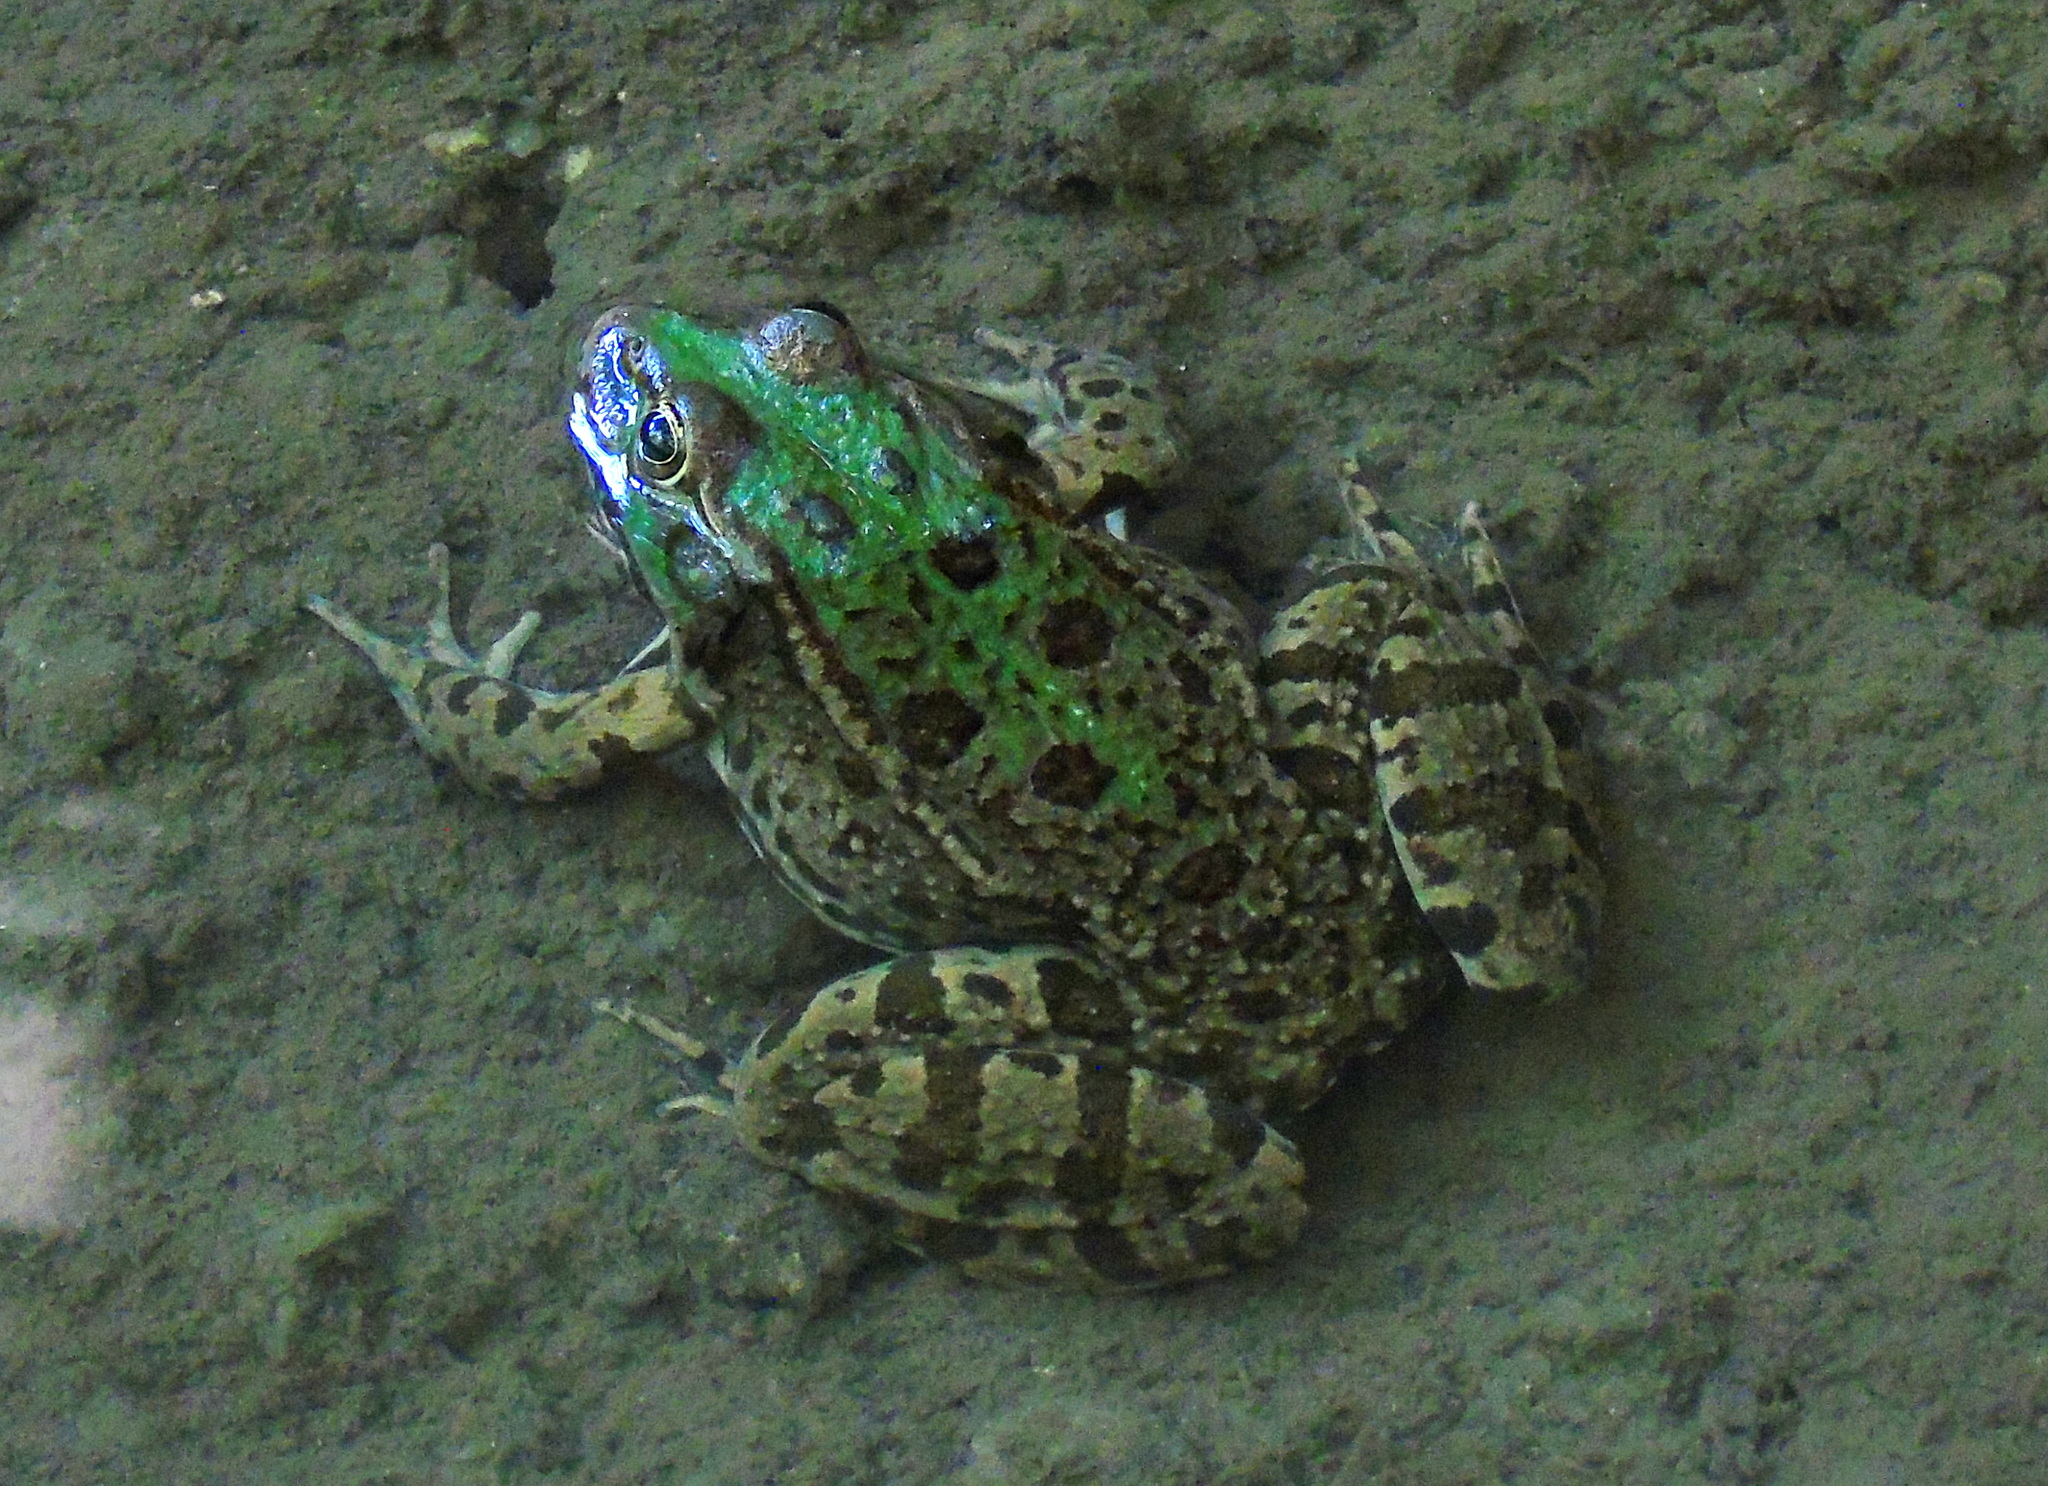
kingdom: Animalia
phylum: Chordata
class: Amphibia
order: Anura
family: Ranidae
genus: Pelophylax
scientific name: Pelophylax ridibundus
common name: Marsh frog
